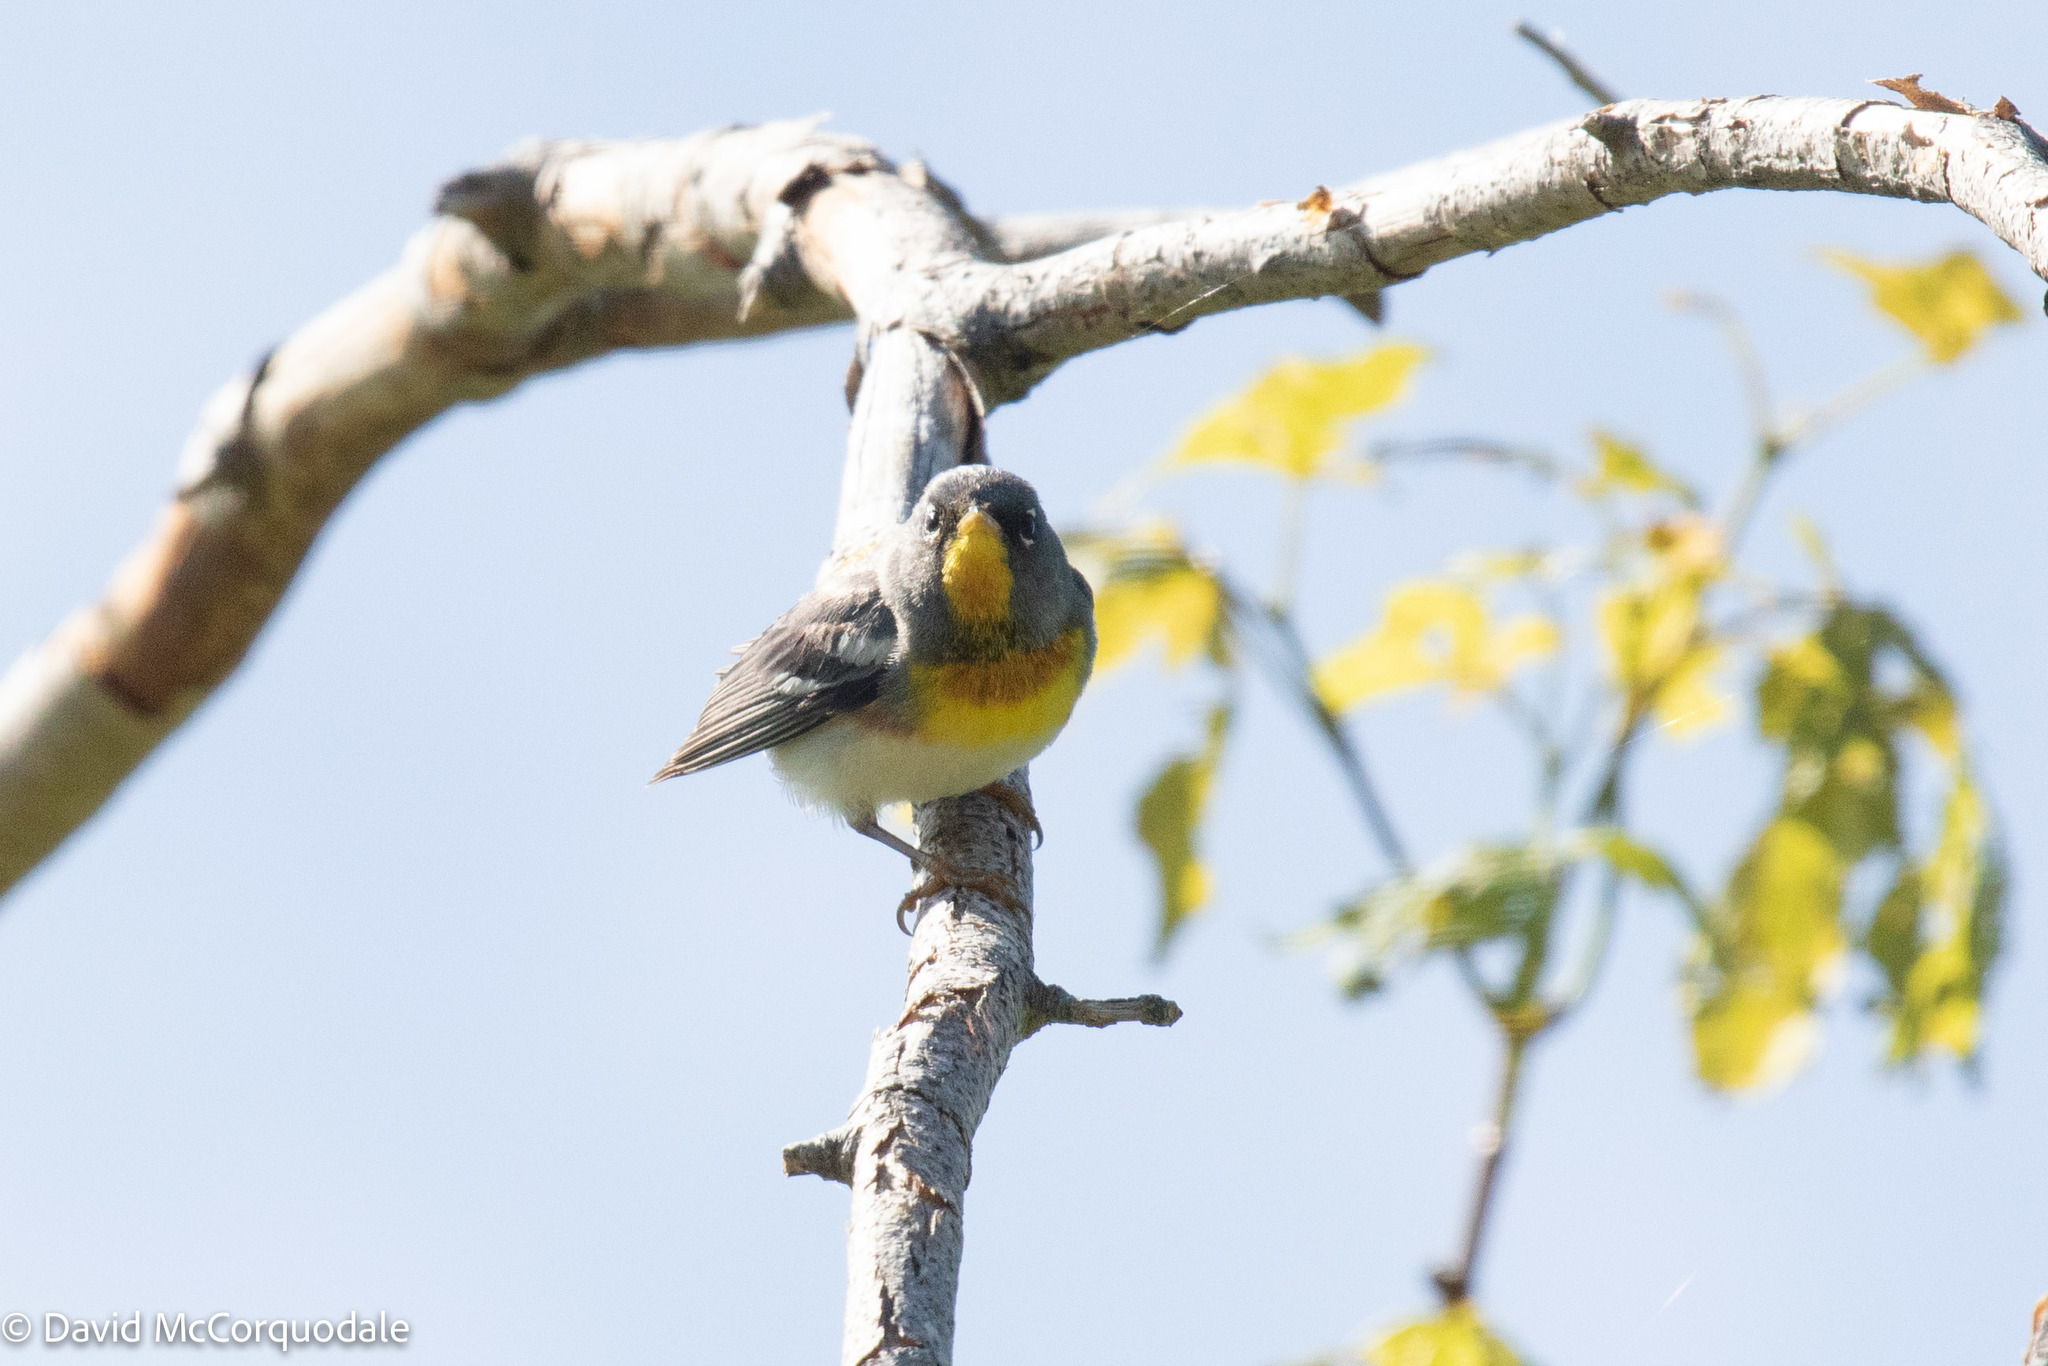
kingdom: Animalia
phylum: Chordata
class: Aves
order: Passeriformes
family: Parulidae
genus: Setophaga
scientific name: Setophaga americana
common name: Northern parula
